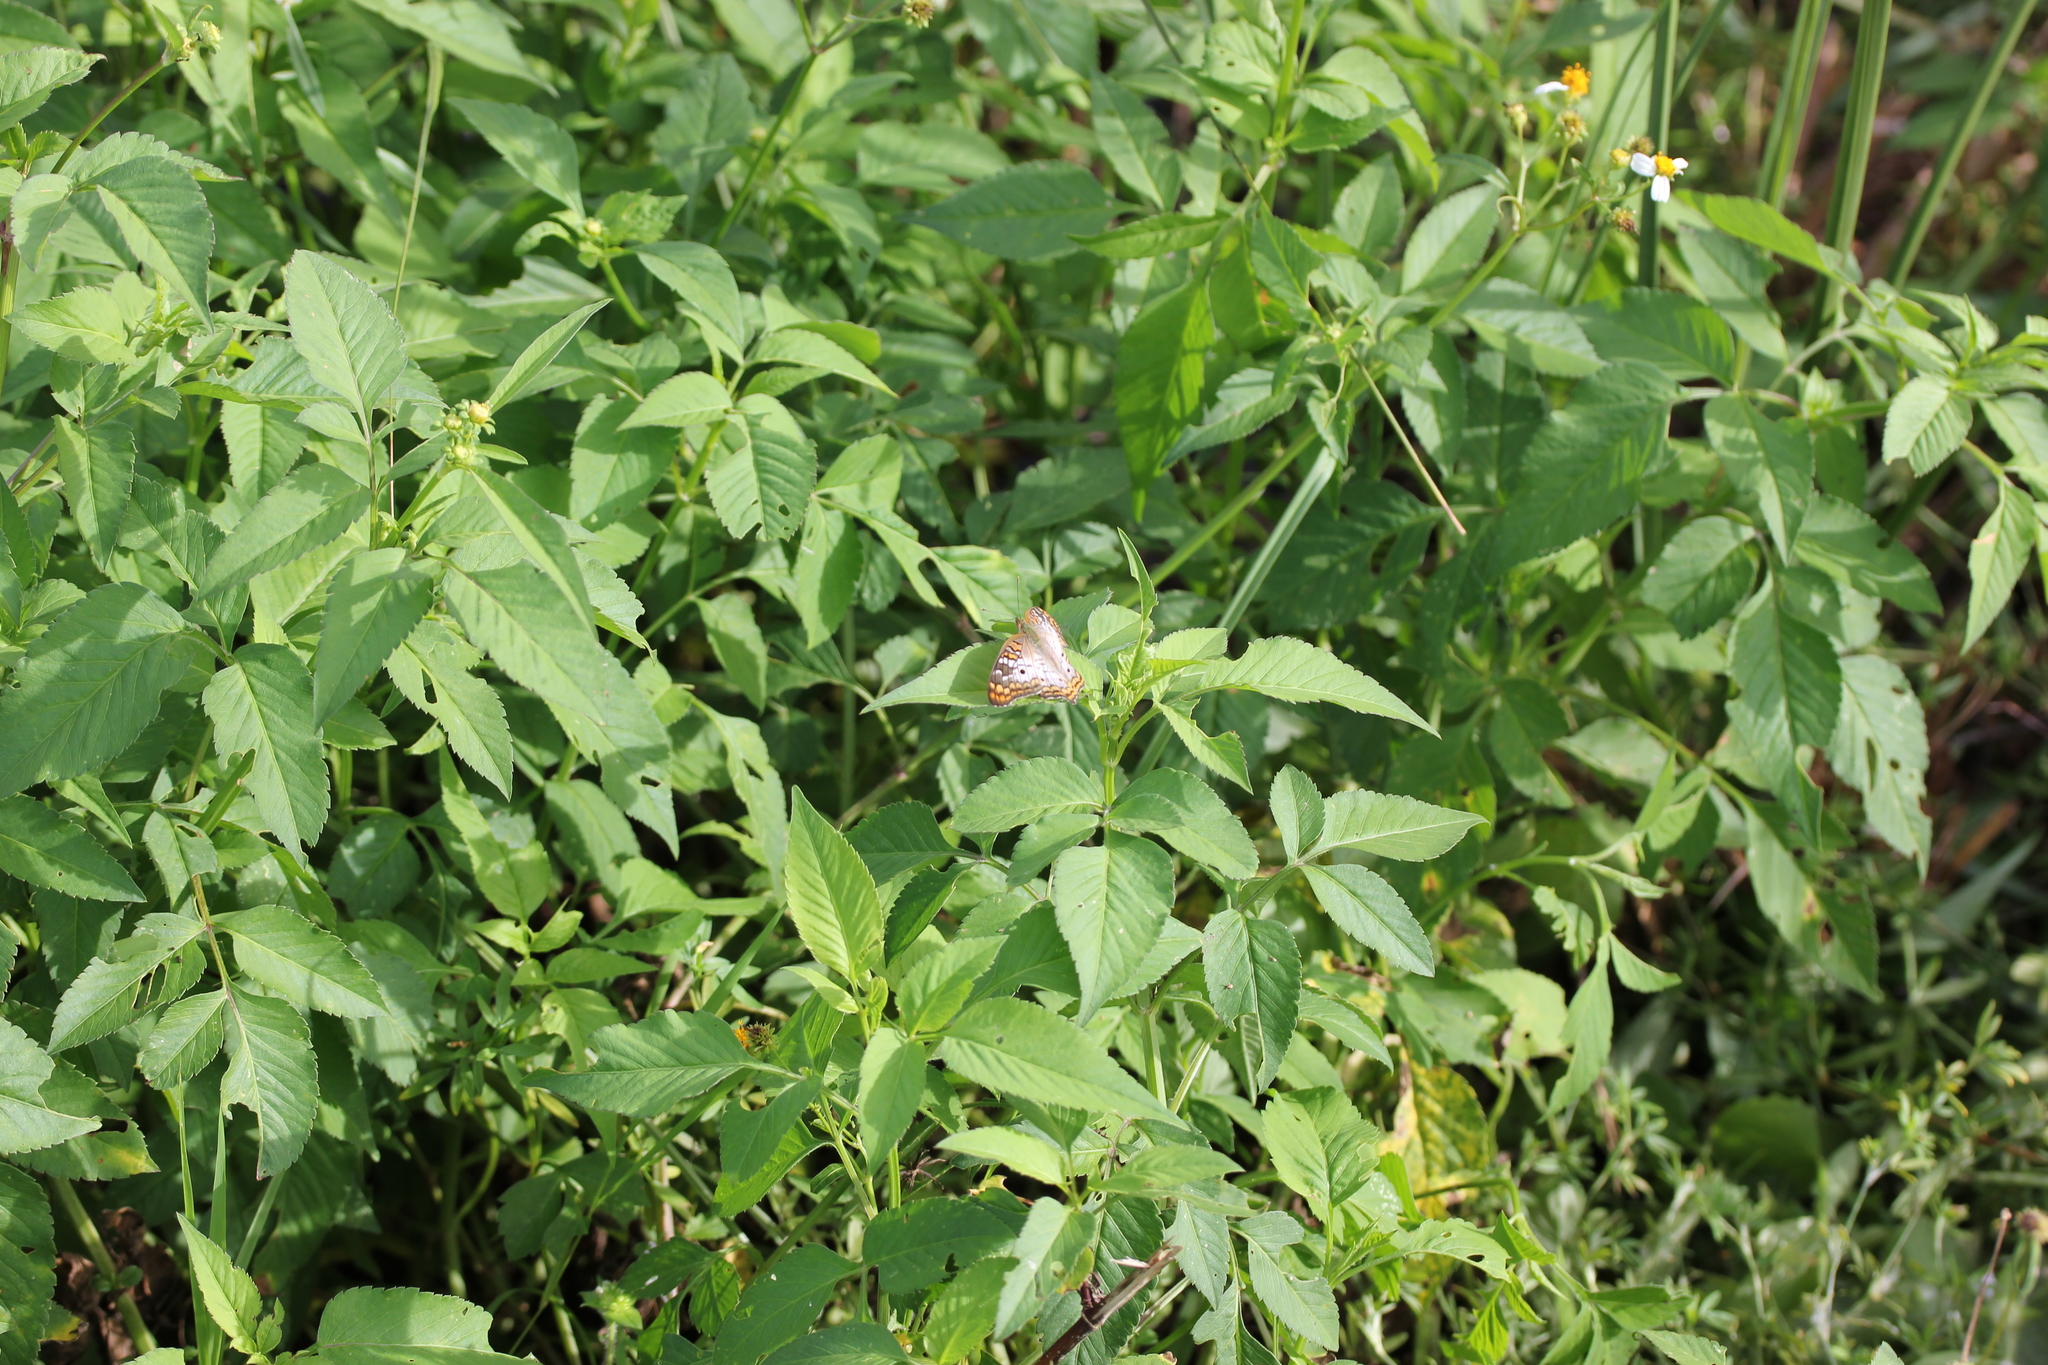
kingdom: Plantae
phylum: Tracheophyta
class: Magnoliopsida
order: Asterales
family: Asteraceae
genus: Bidens
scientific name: Bidens alba
